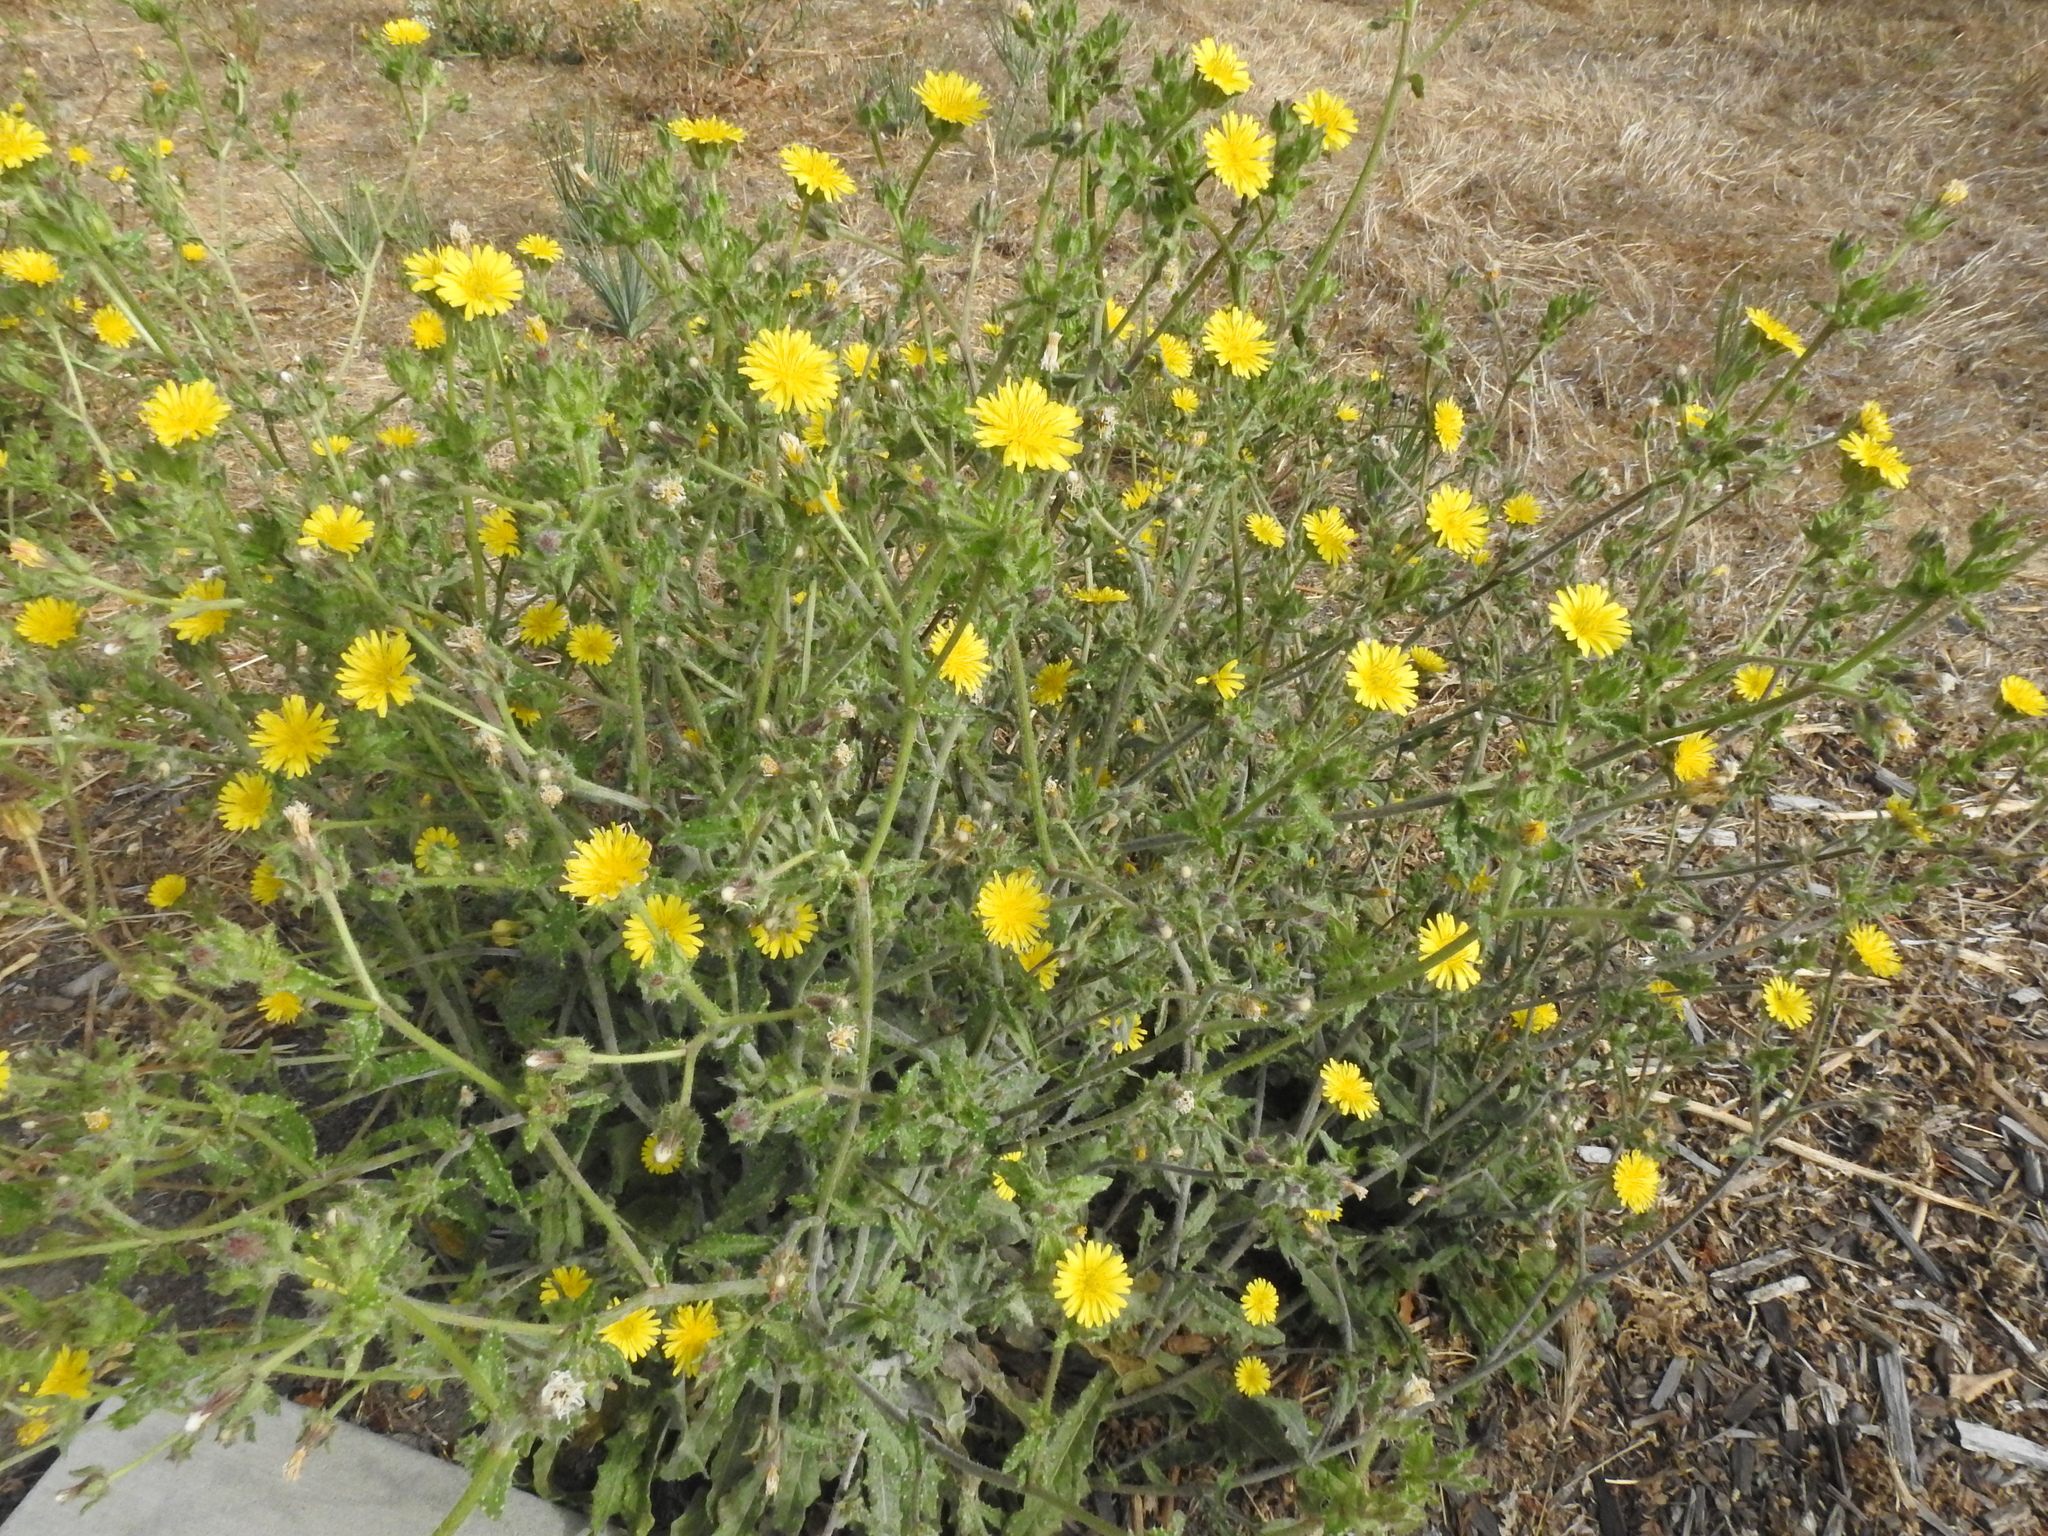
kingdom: Plantae
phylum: Tracheophyta
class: Magnoliopsida
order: Asterales
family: Asteraceae
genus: Helminthotheca
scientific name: Helminthotheca echioides
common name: Ox-tongue
